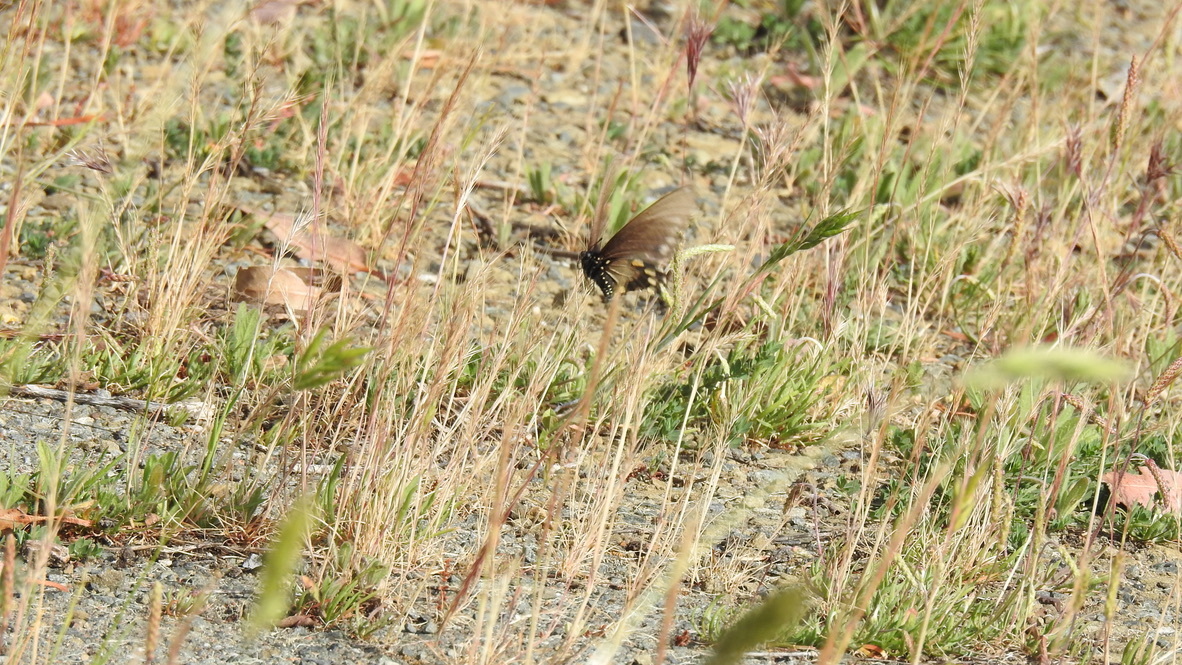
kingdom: Animalia
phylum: Arthropoda
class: Insecta
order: Lepidoptera
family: Papilionidae
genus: Battus
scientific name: Battus philenor
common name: Pipevine swallowtail
